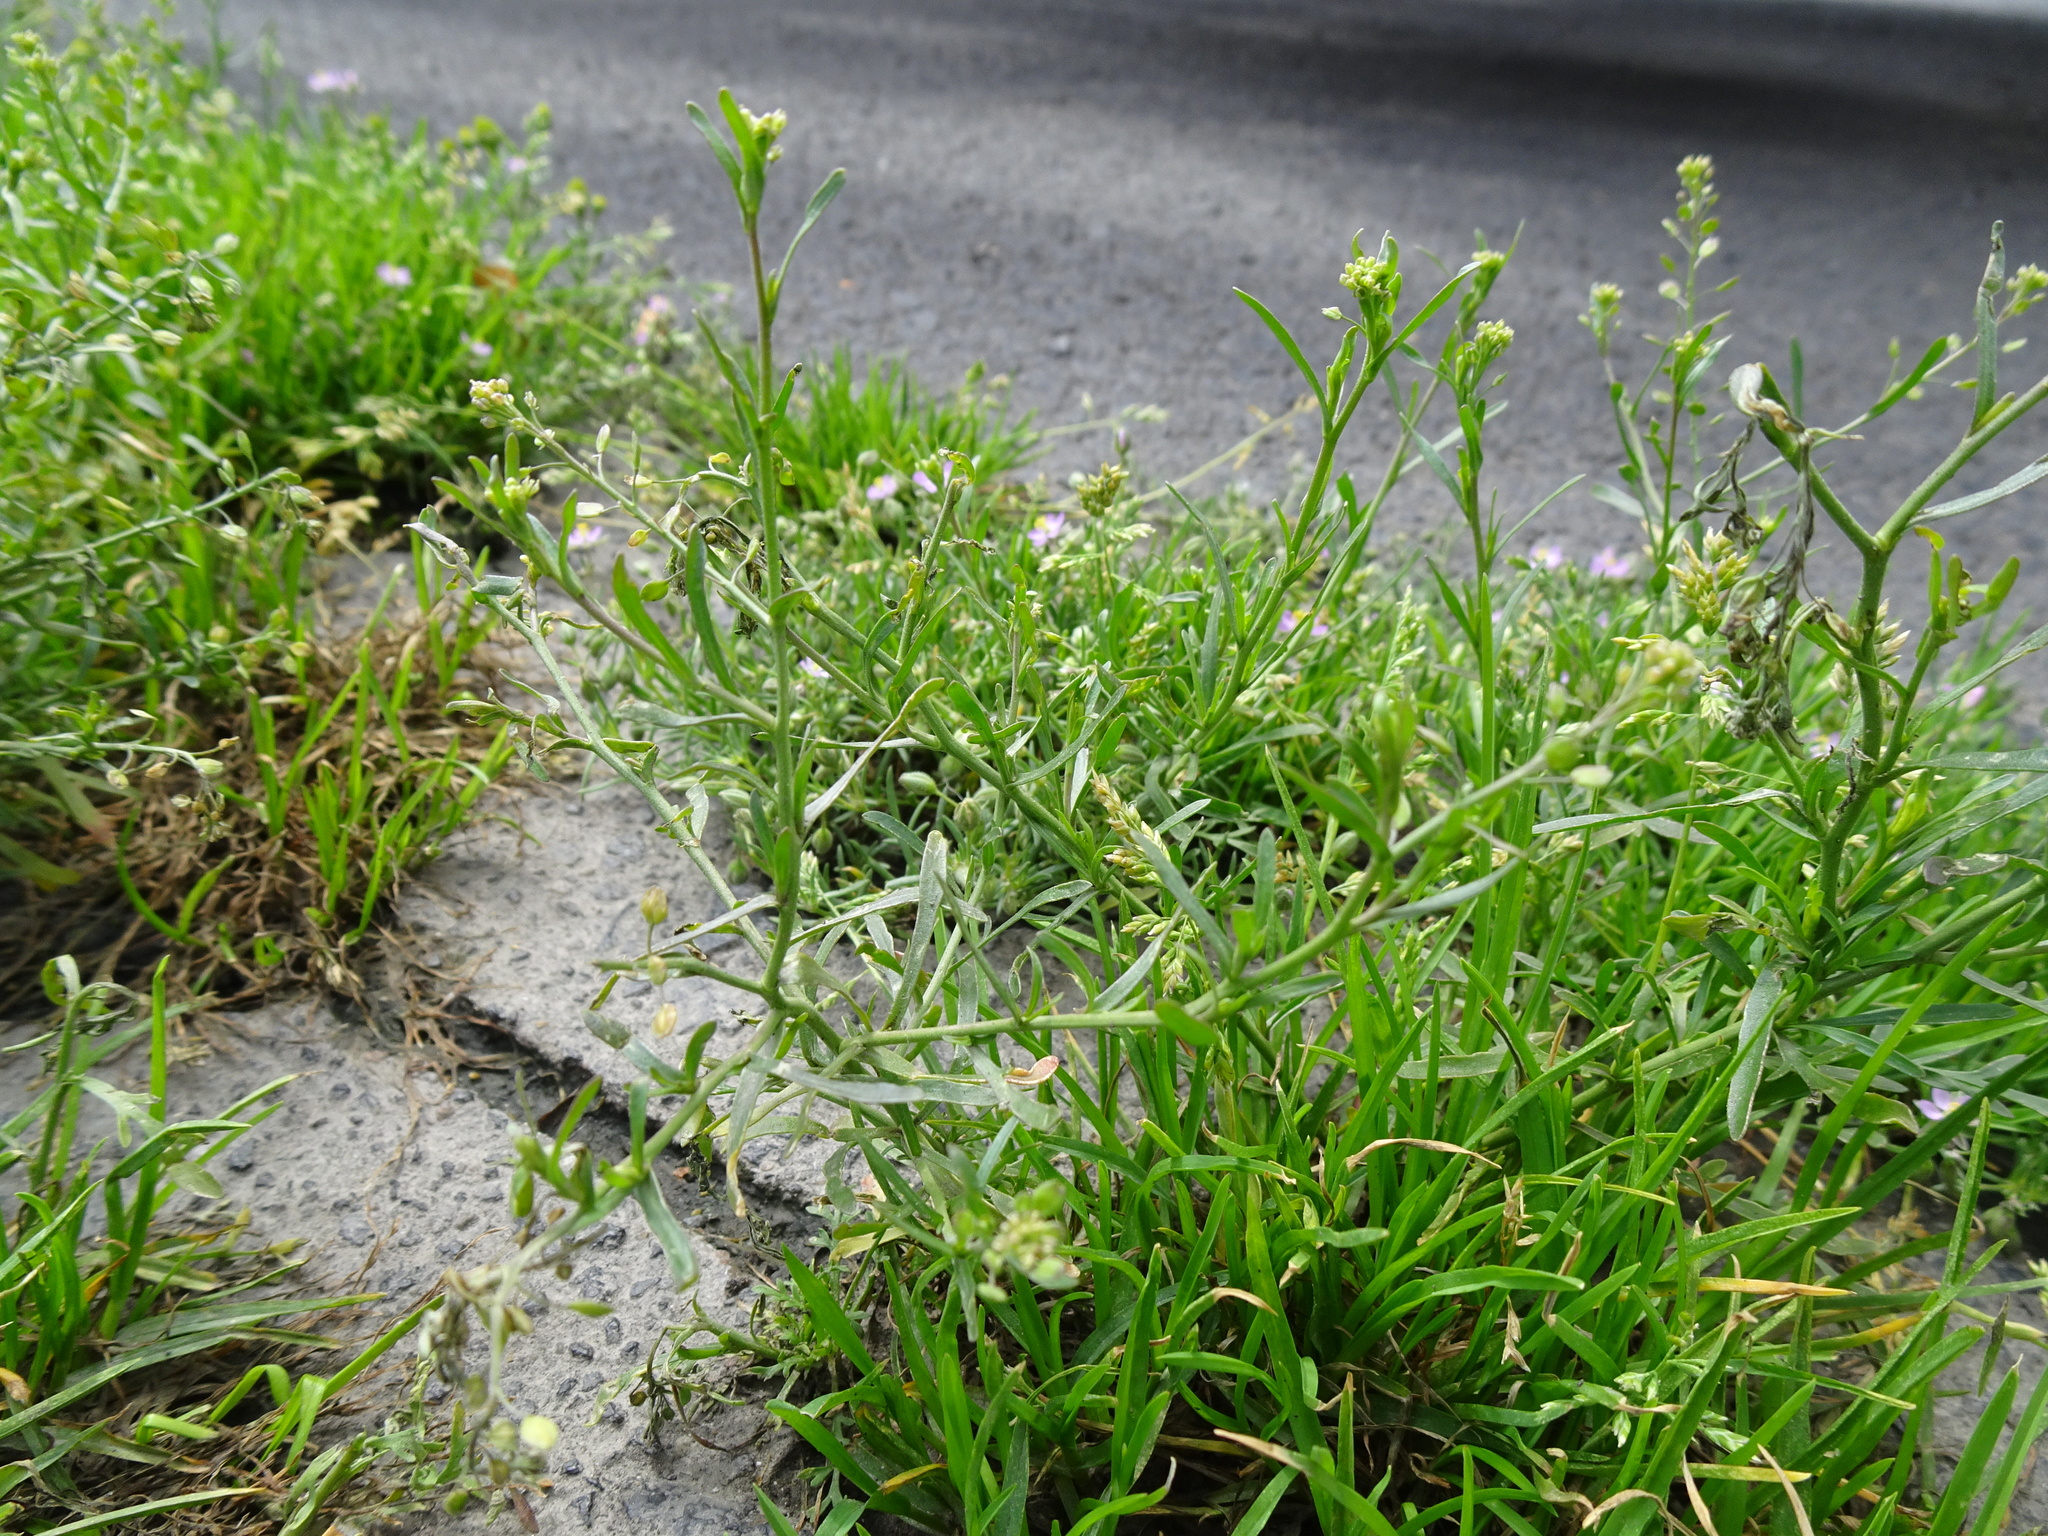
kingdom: Plantae
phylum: Tracheophyta
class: Magnoliopsida
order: Brassicales
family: Brassicaceae
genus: Lepidium
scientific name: Lepidium ruderale
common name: Narrow-leaved pepperwort
